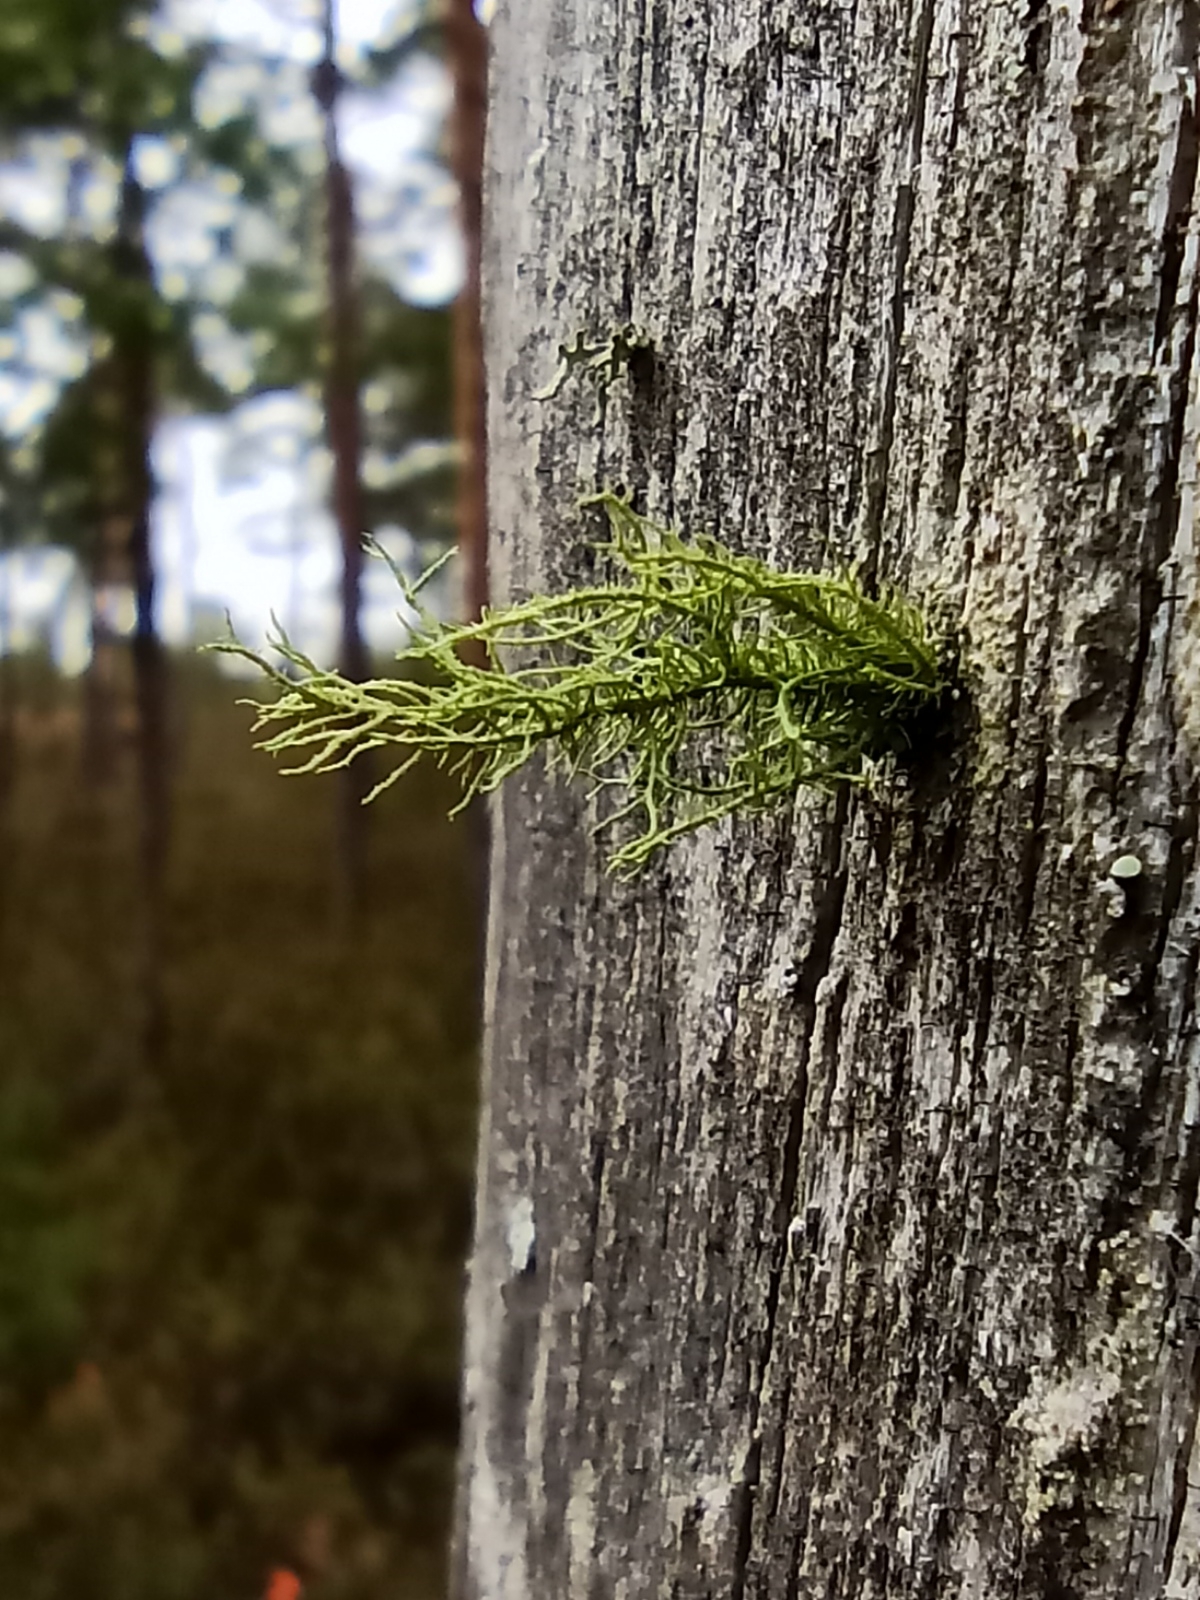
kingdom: Fungi
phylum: Ascomycota
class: Lecanoromycetes
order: Lecanorales
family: Parmeliaceae
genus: Usnea
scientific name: Usnea hirta
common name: Bristly beard lichen
